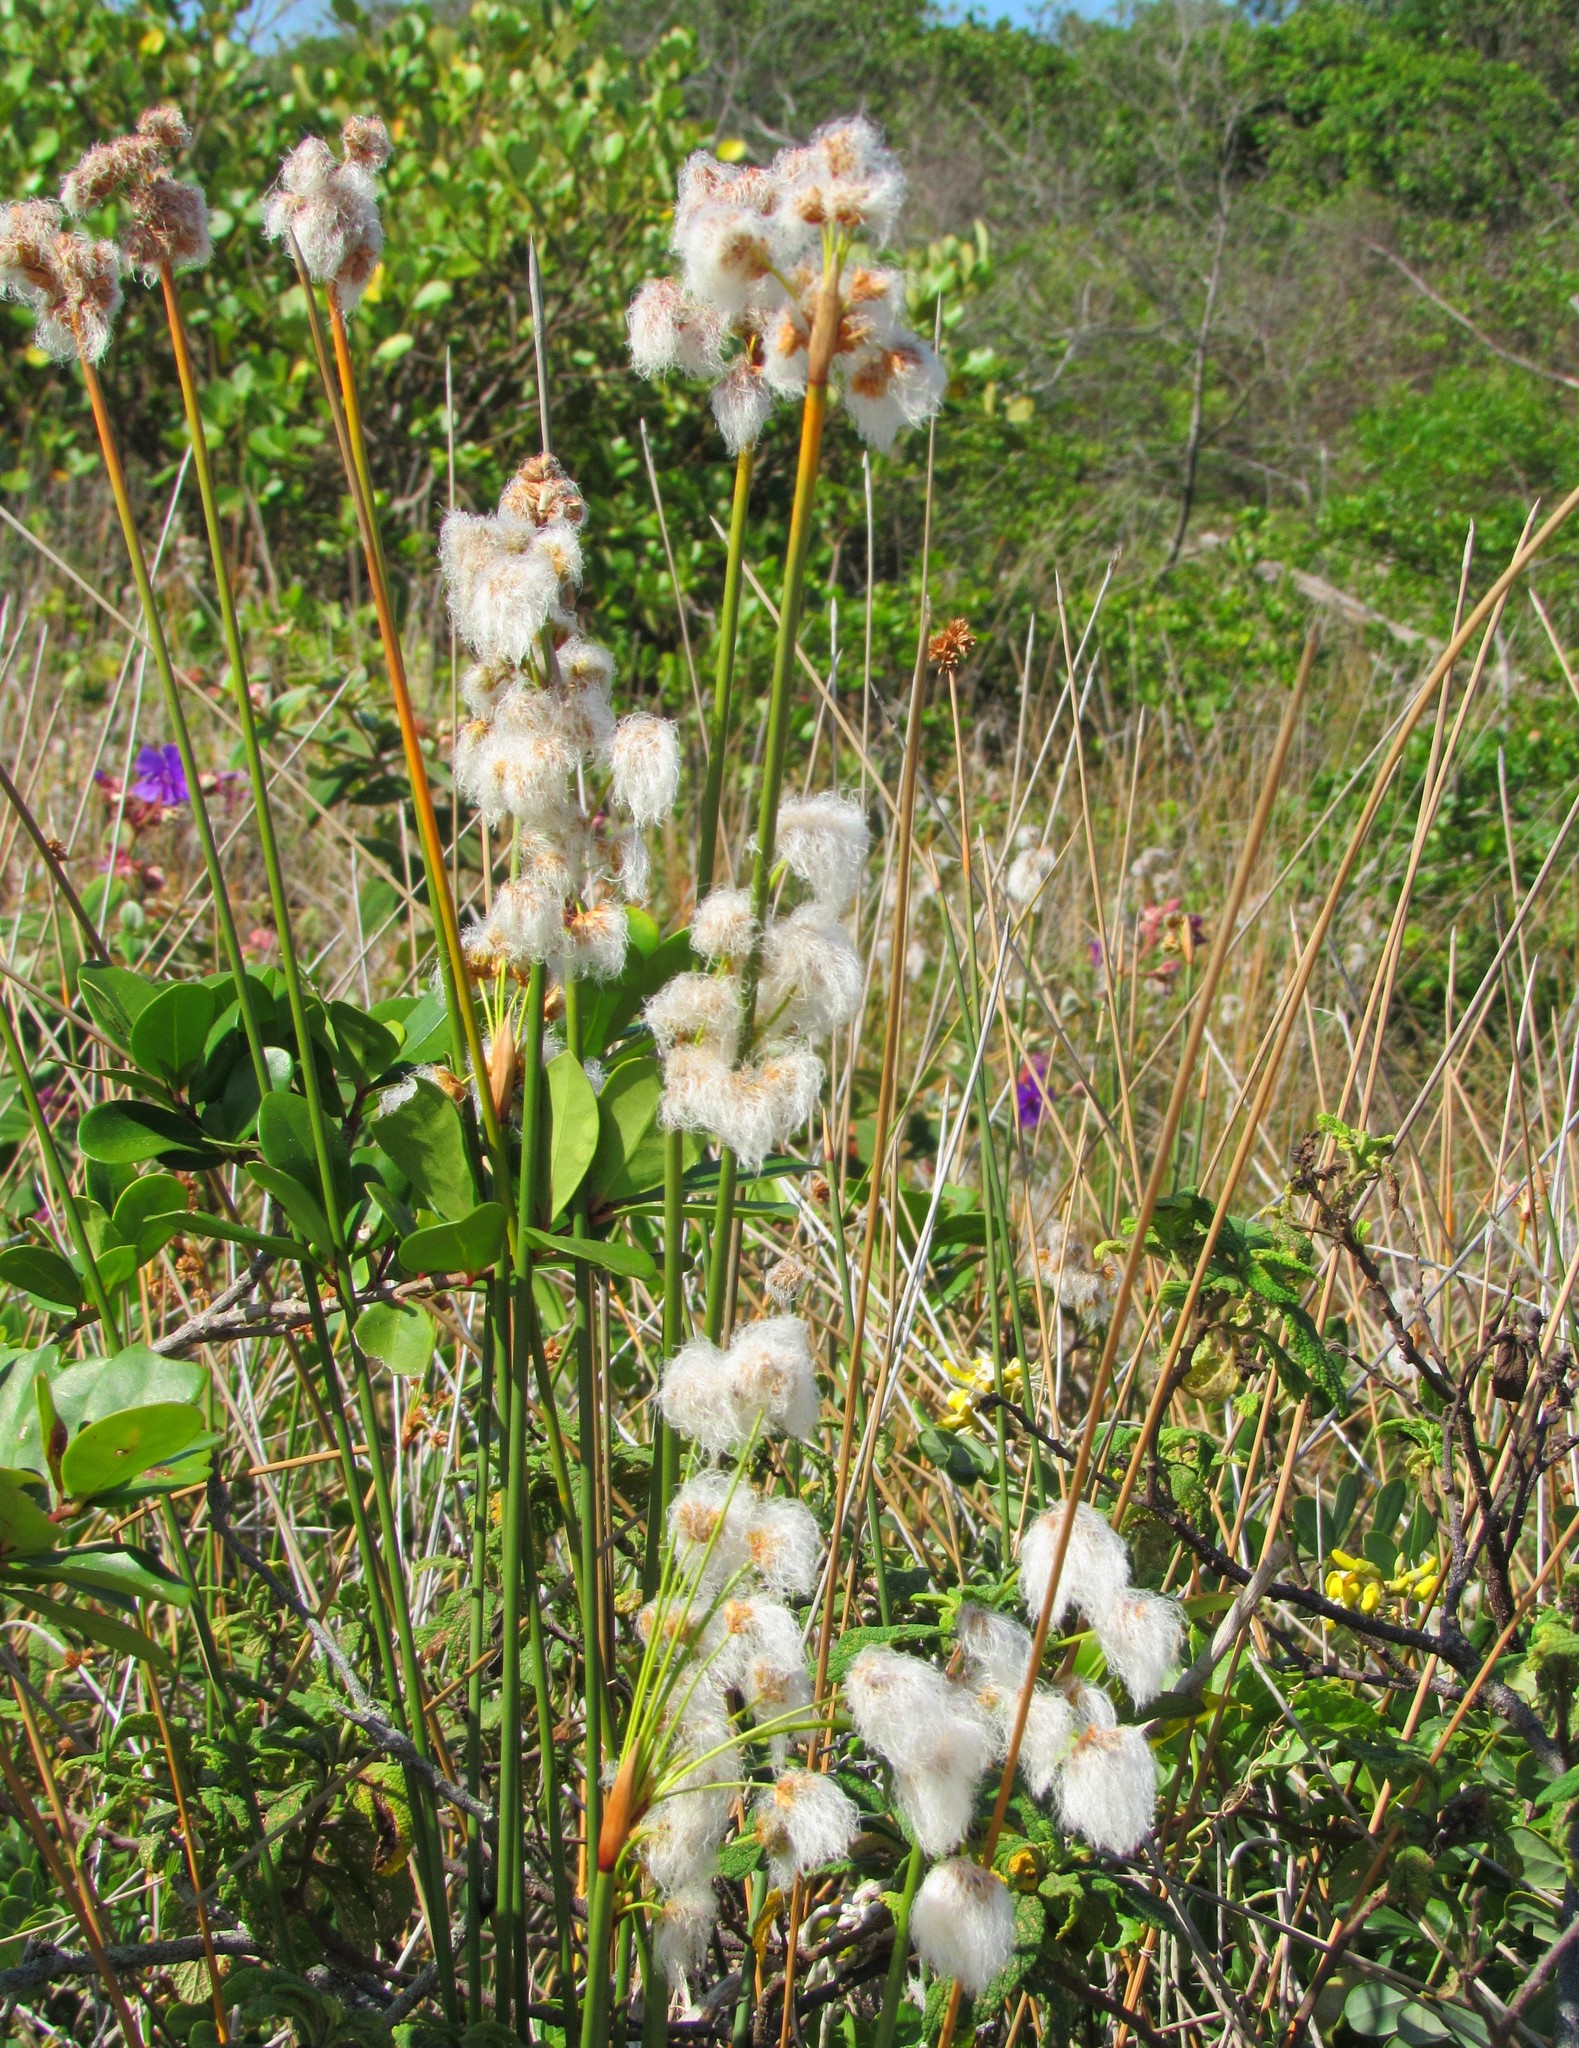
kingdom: Plantae
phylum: Tracheophyta
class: Liliopsida
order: Poales
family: Cyperaceae
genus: Cyperus
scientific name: Cyperus trigynus
